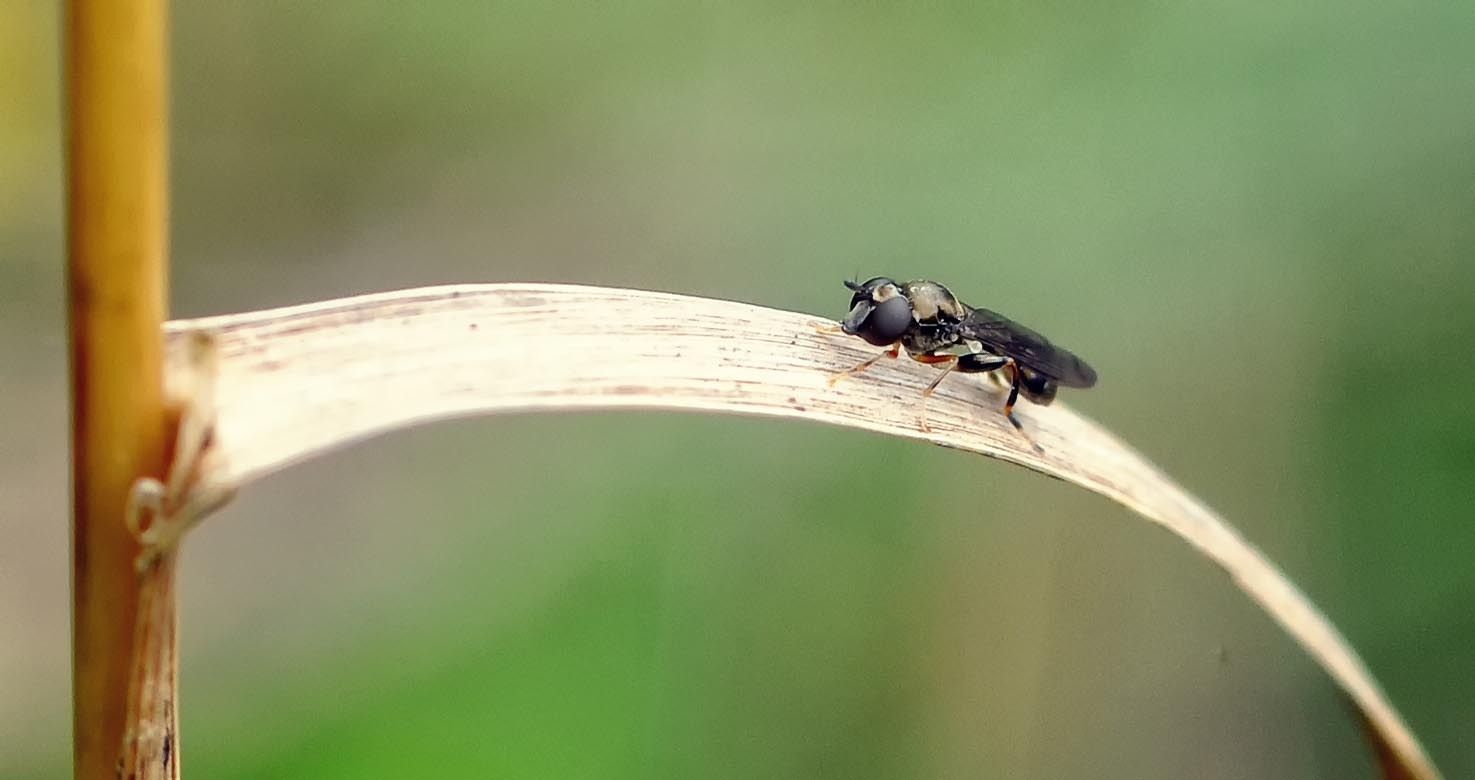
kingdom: Animalia
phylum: Arthropoda
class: Insecta
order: Diptera
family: Syrphidae
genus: Neoascia
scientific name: Neoascia
